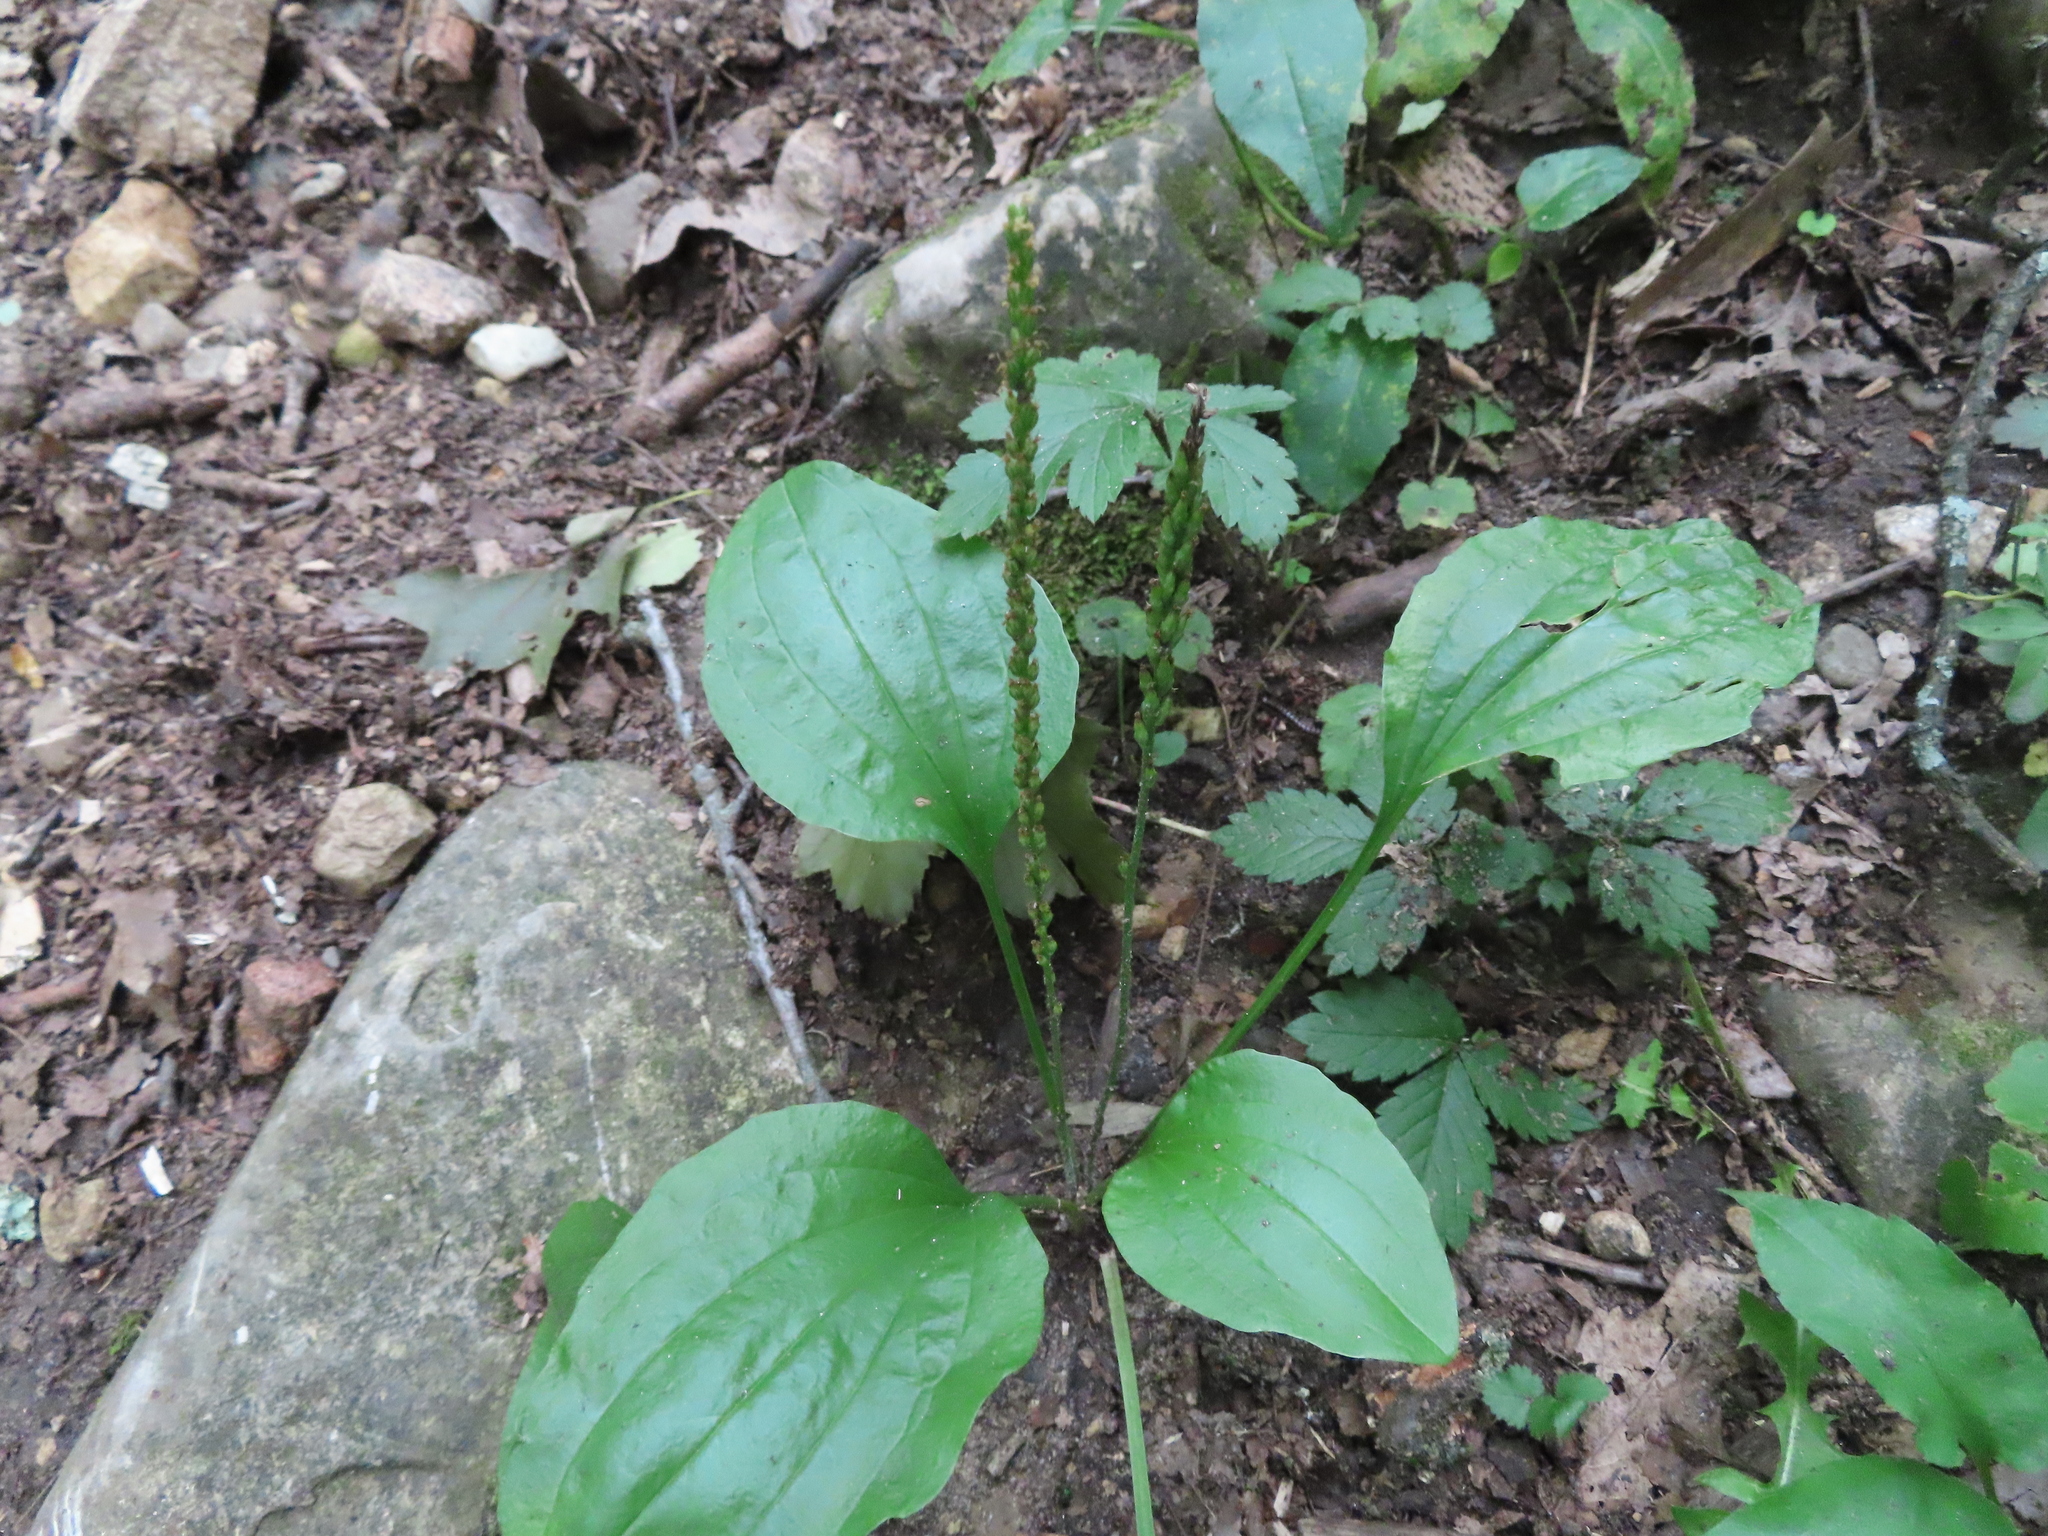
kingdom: Plantae
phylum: Tracheophyta
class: Magnoliopsida
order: Lamiales
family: Plantaginaceae
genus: Plantago
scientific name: Plantago rugelii
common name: American plantain
